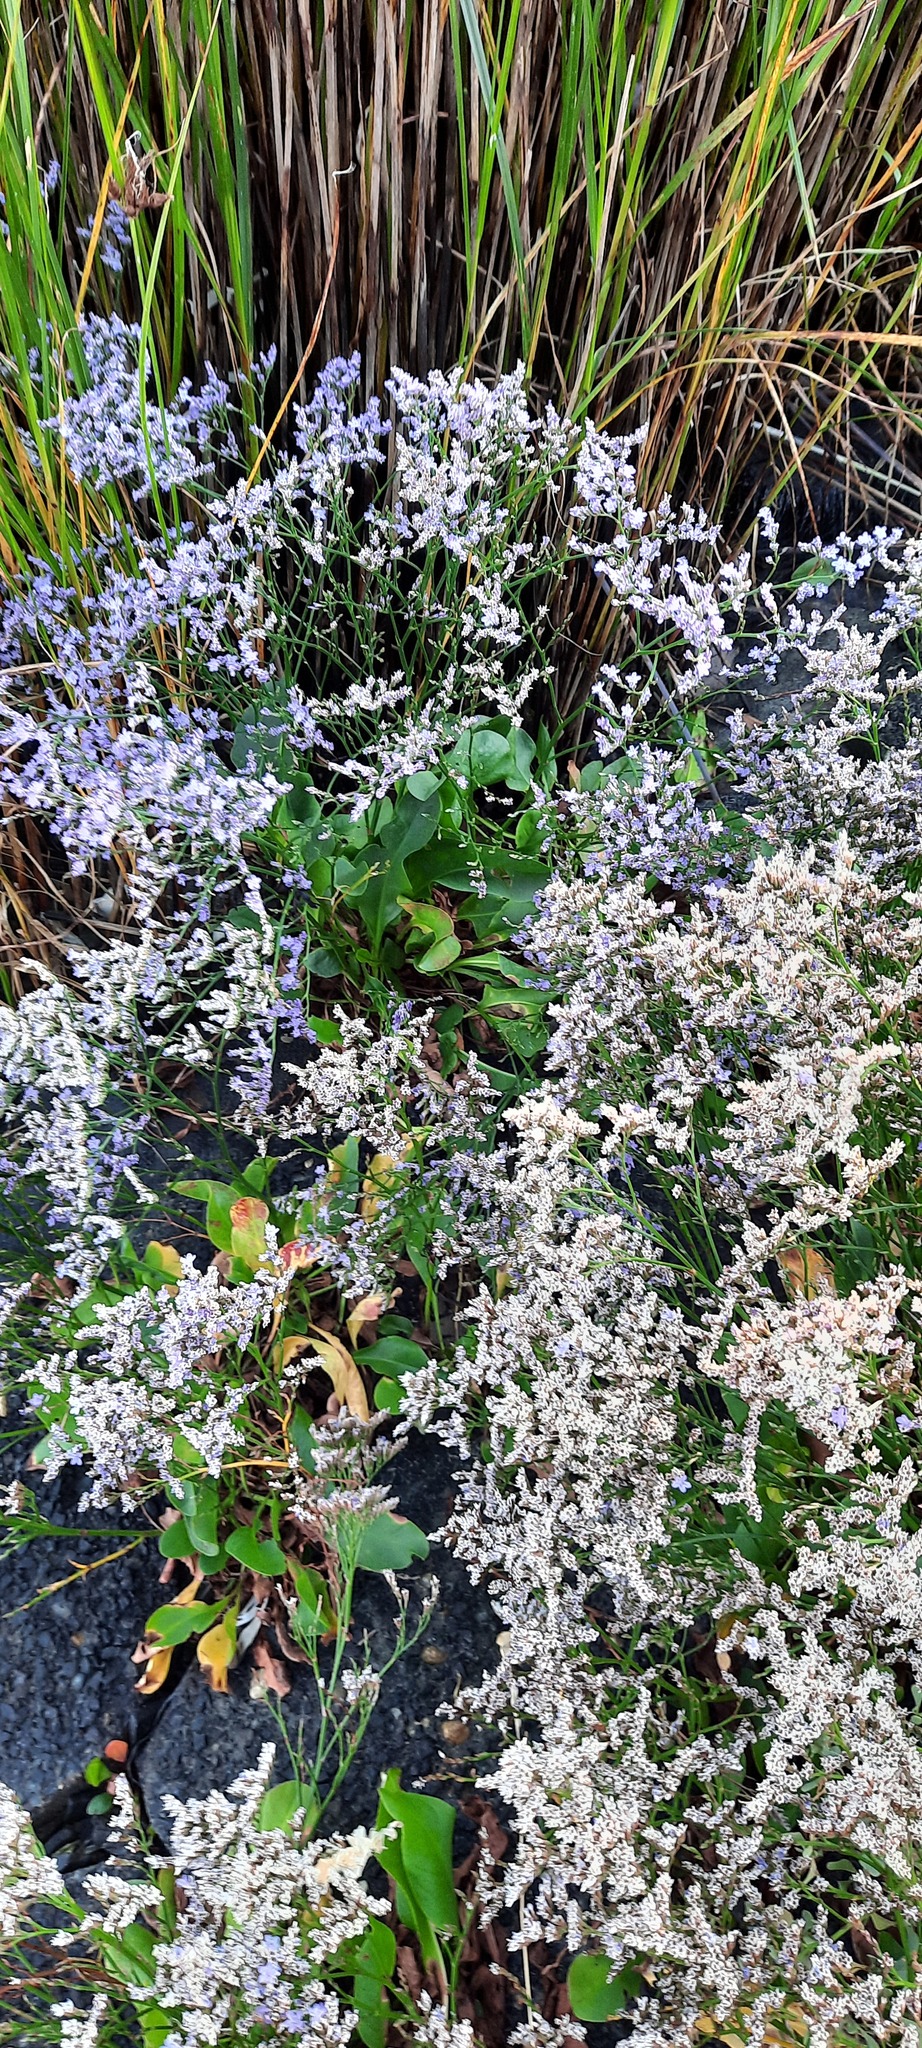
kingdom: Plantae
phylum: Tracheophyta
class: Magnoliopsida
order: Caryophyllales
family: Plumbaginaceae
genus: Limonium
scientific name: Limonium vulgare
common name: Common sea-lavender
